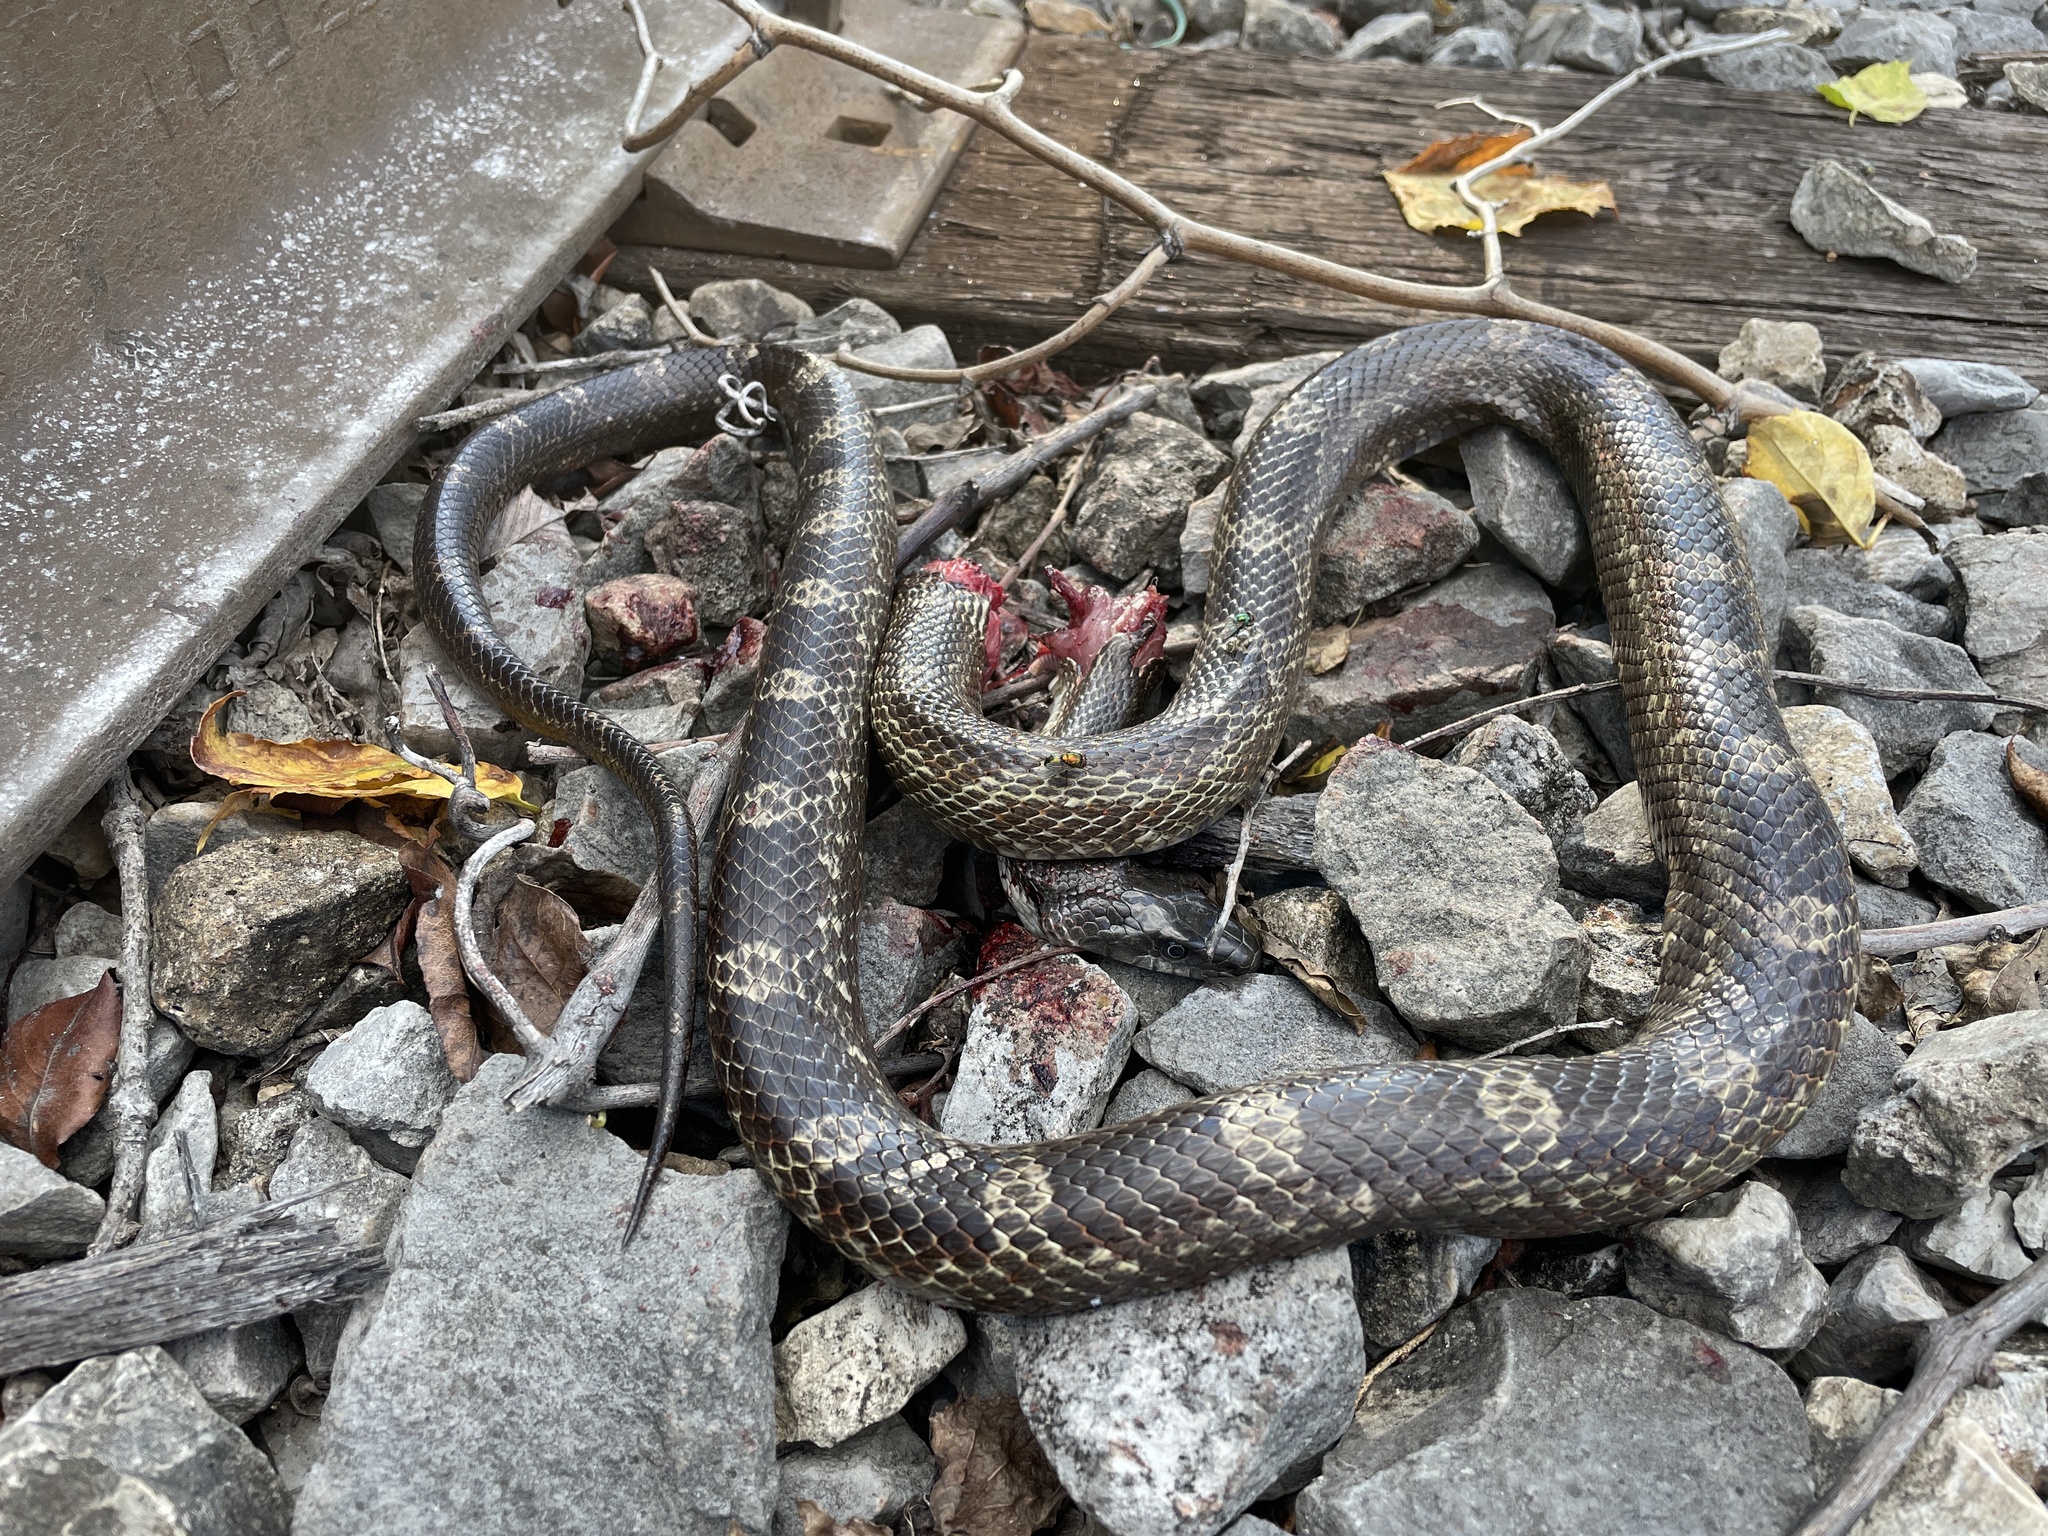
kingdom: Animalia
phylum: Chordata
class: Squamata
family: Colubridae
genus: Pantherophis
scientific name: Pantherophis spiloides
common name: Gray rat snake
